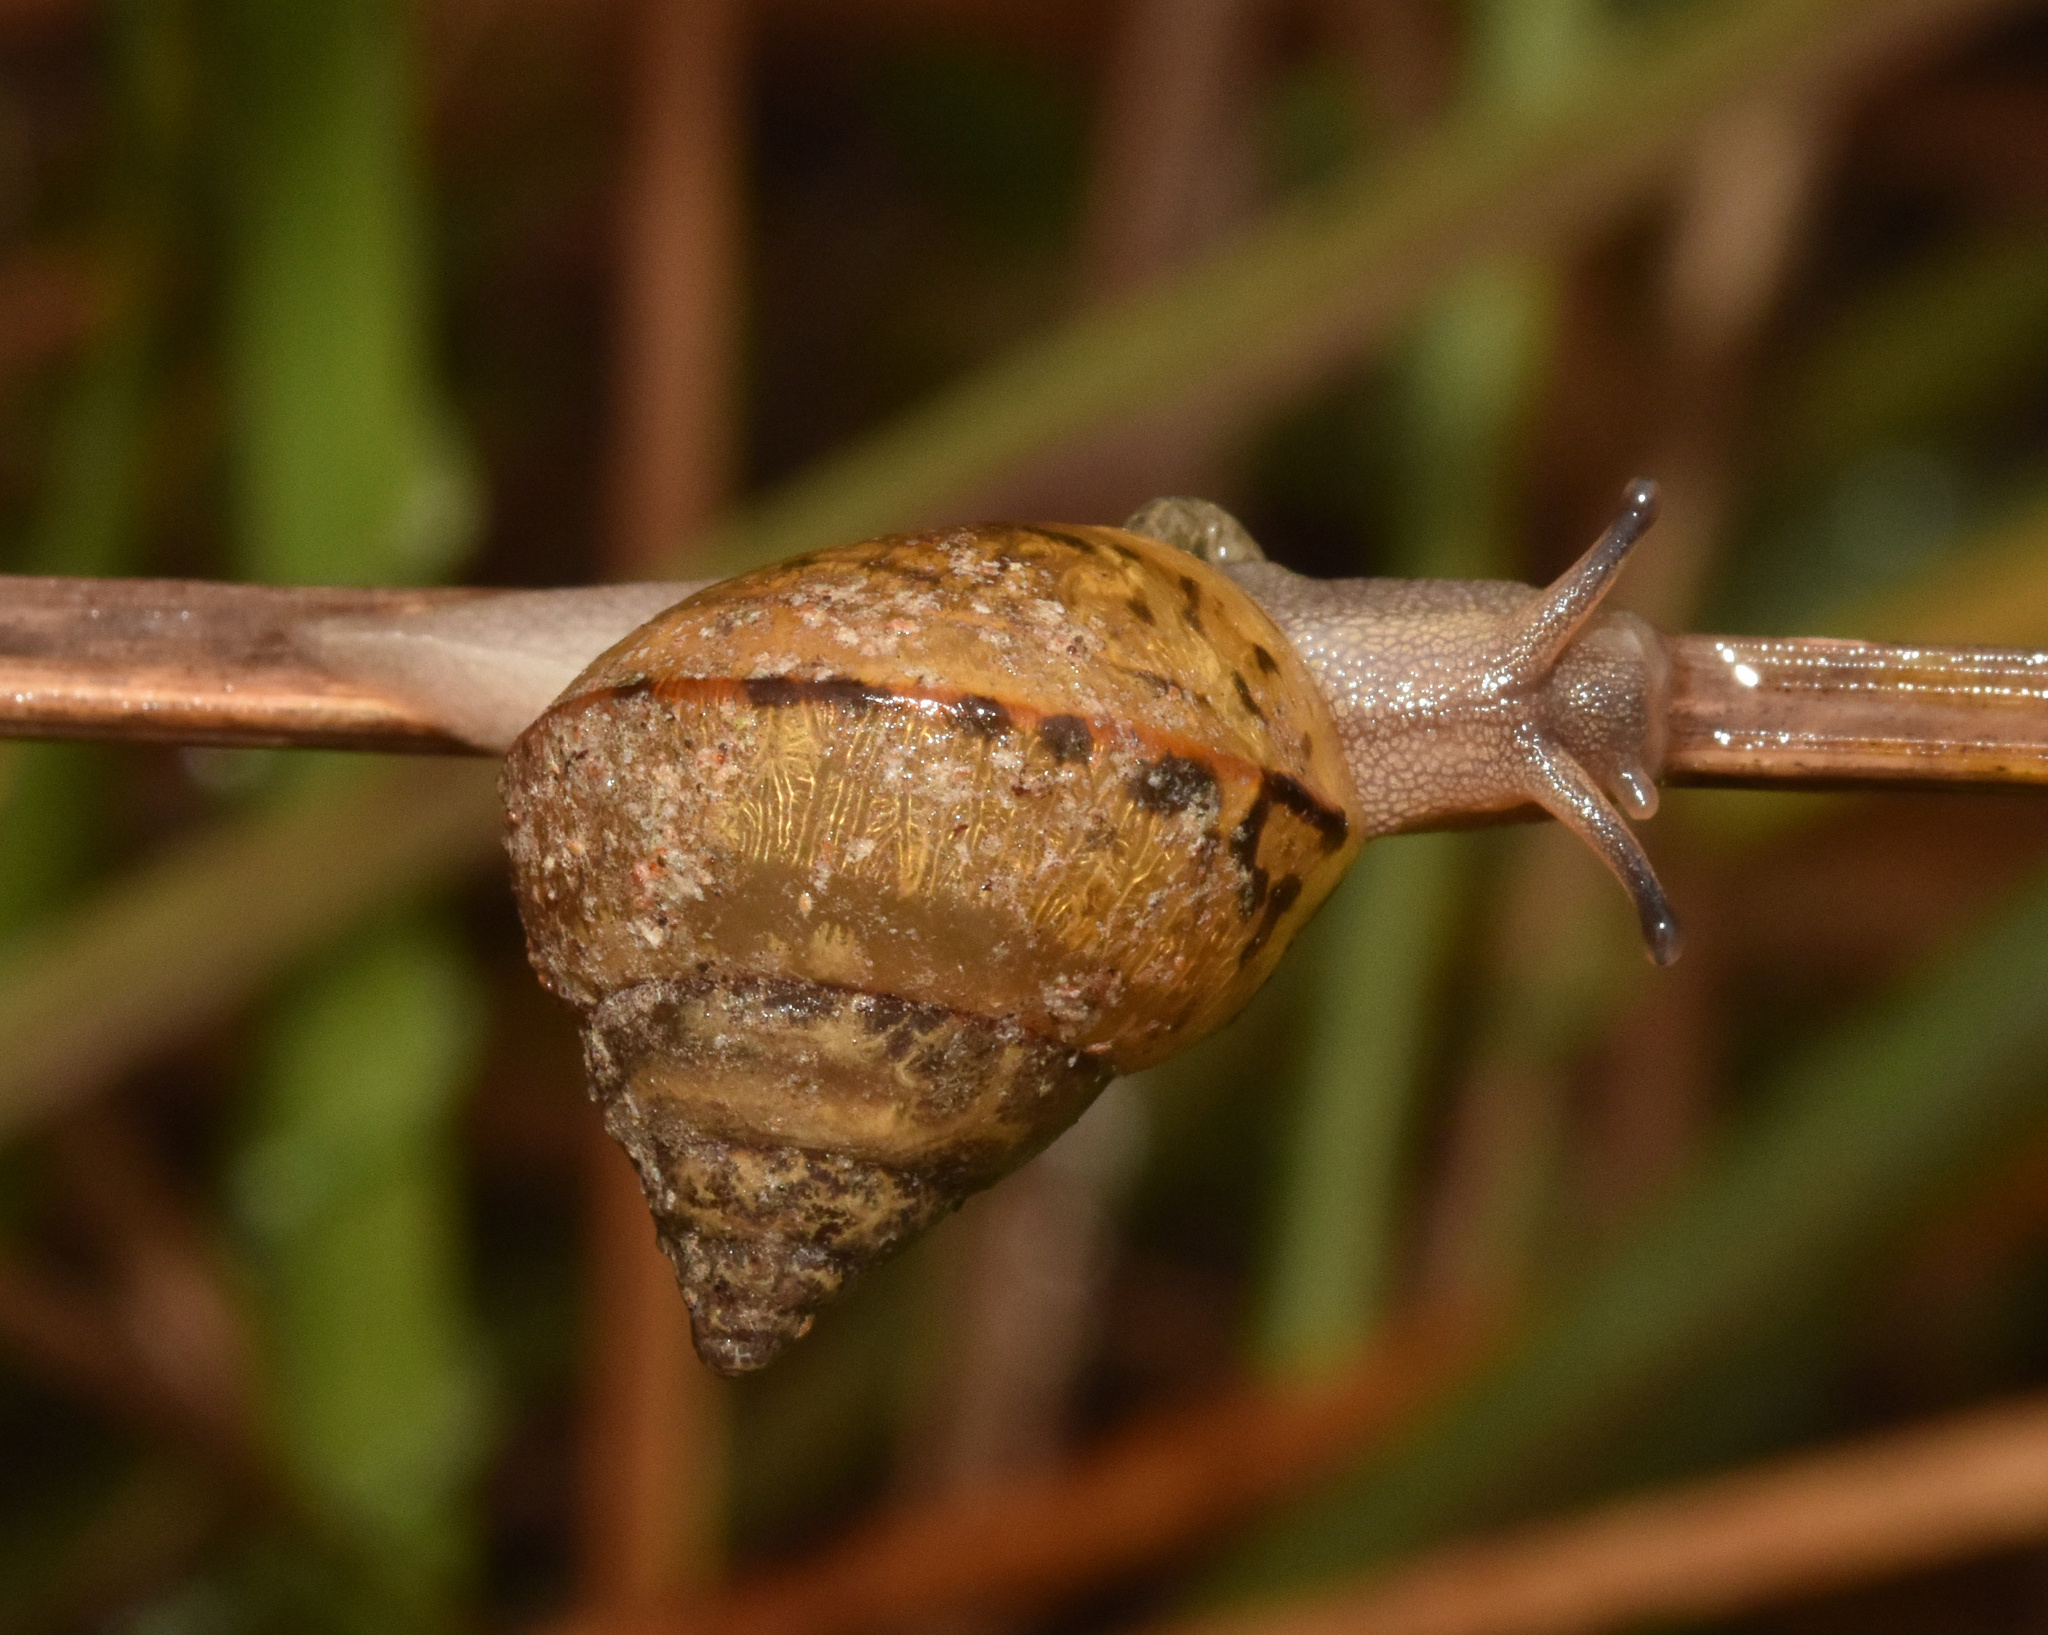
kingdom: Animalia
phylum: Mollusca
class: Gastropoda
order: Stylommatophora
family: Cerastidae
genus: Gittenedouardia
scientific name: Gittenedouardia natalensis
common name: Common bark snail
